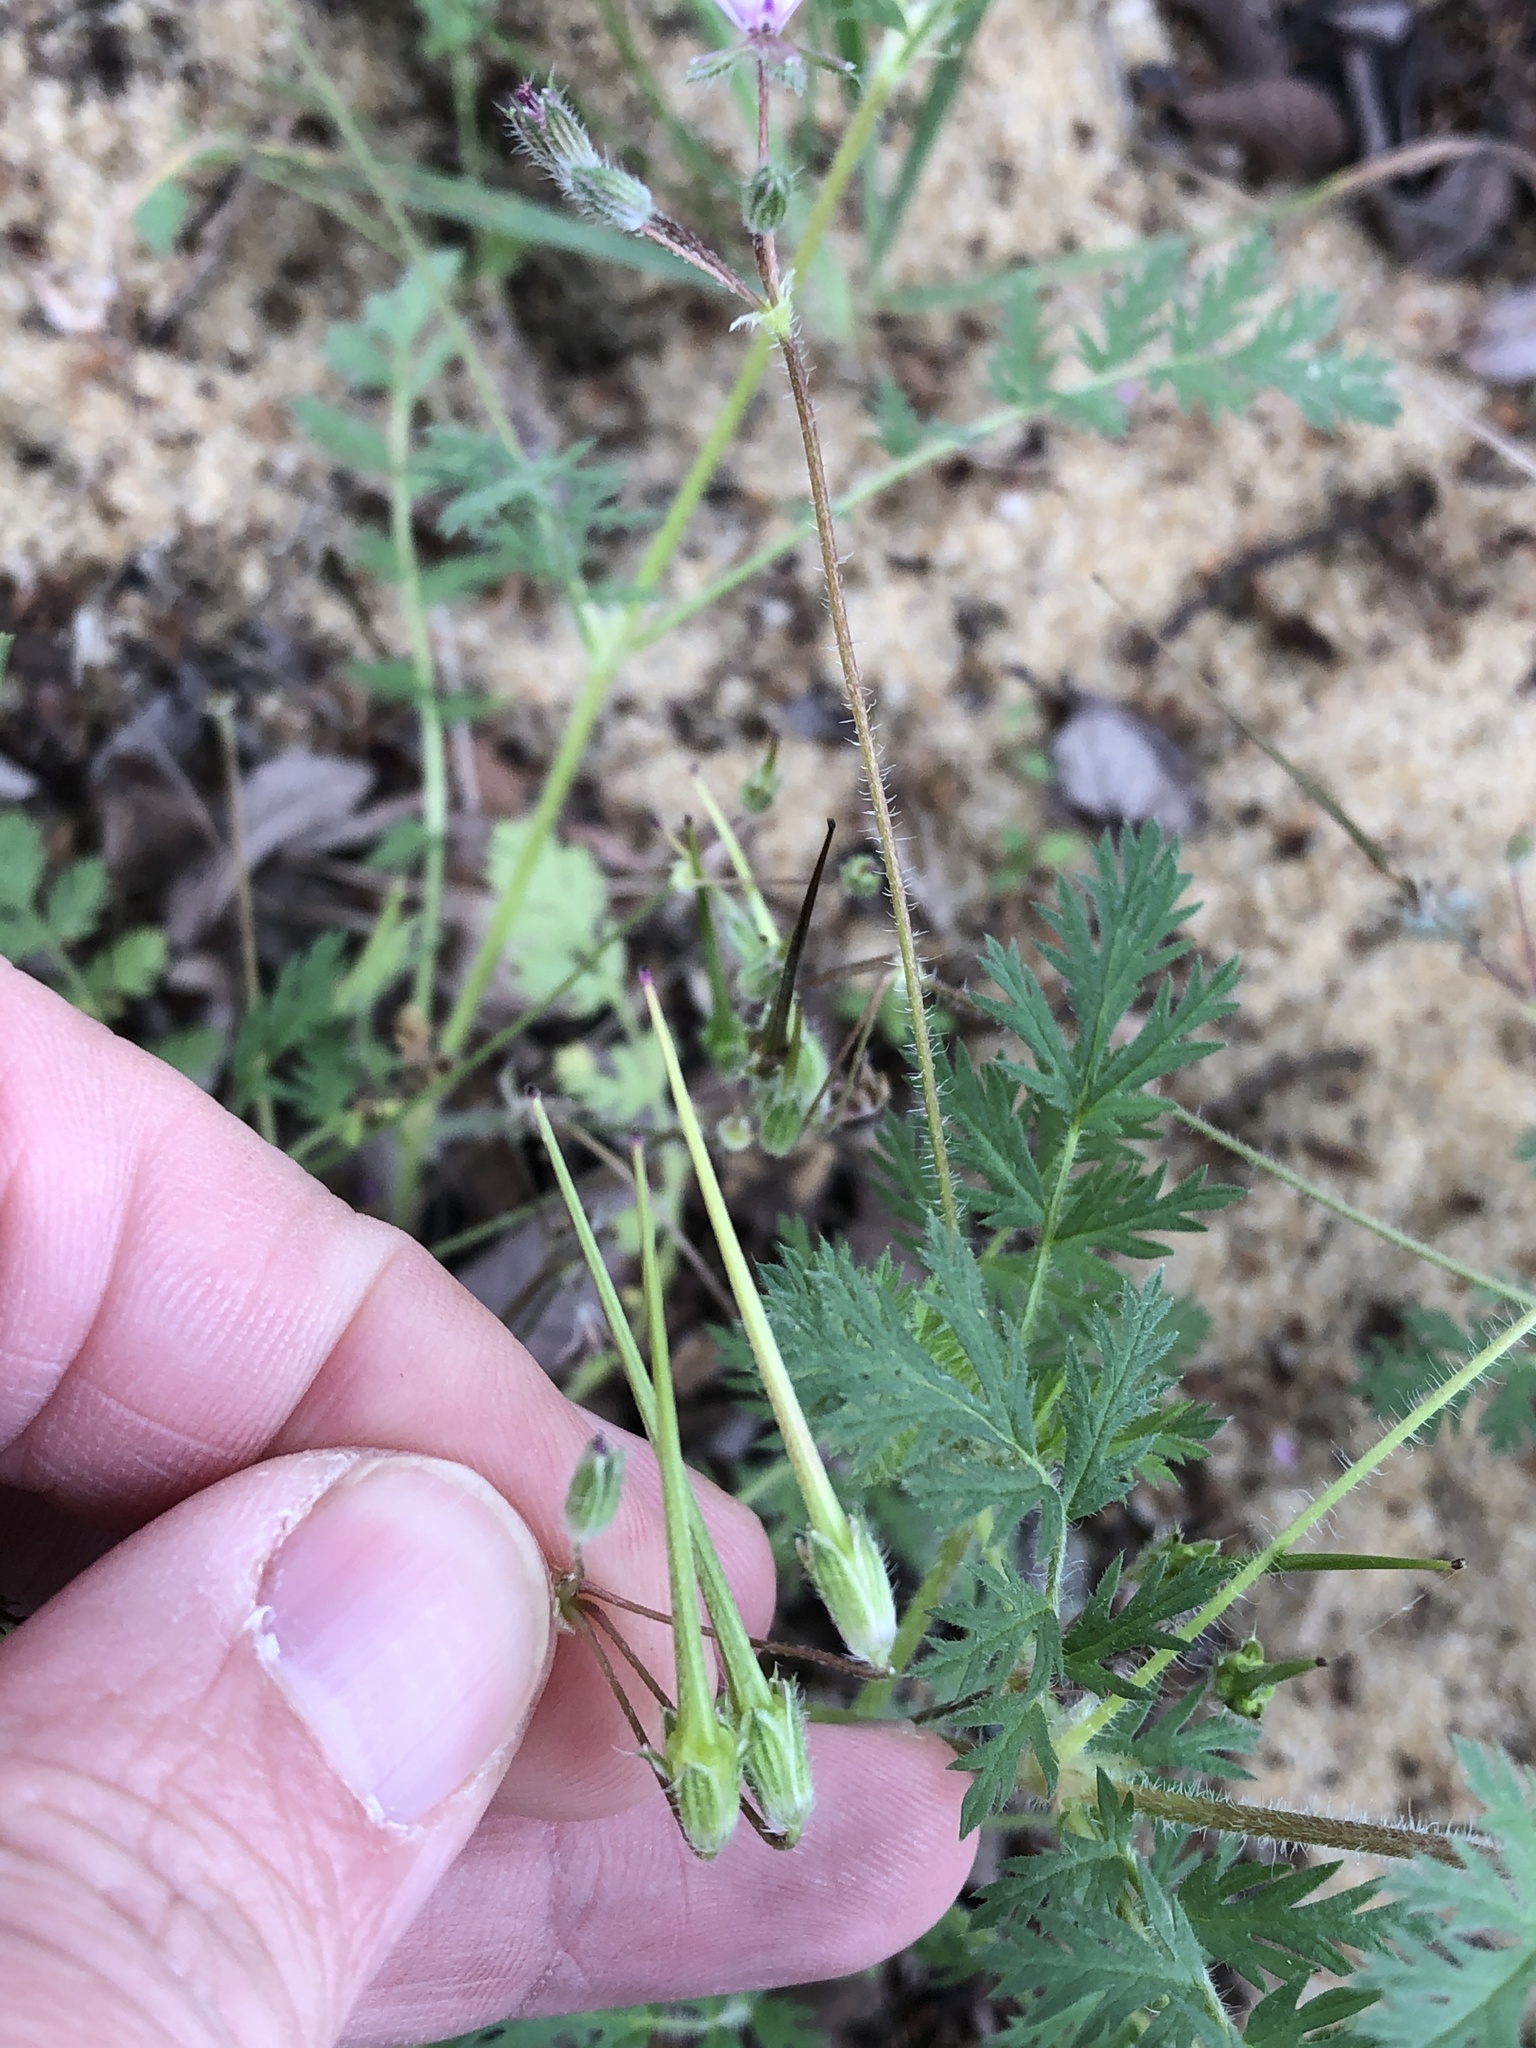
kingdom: Plantae
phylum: Tracheophyta
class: Magnoliopsida
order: Geraniales
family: Geraniaceae
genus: Erodium
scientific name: Erodium cicutarium
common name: Common stork's-bill
